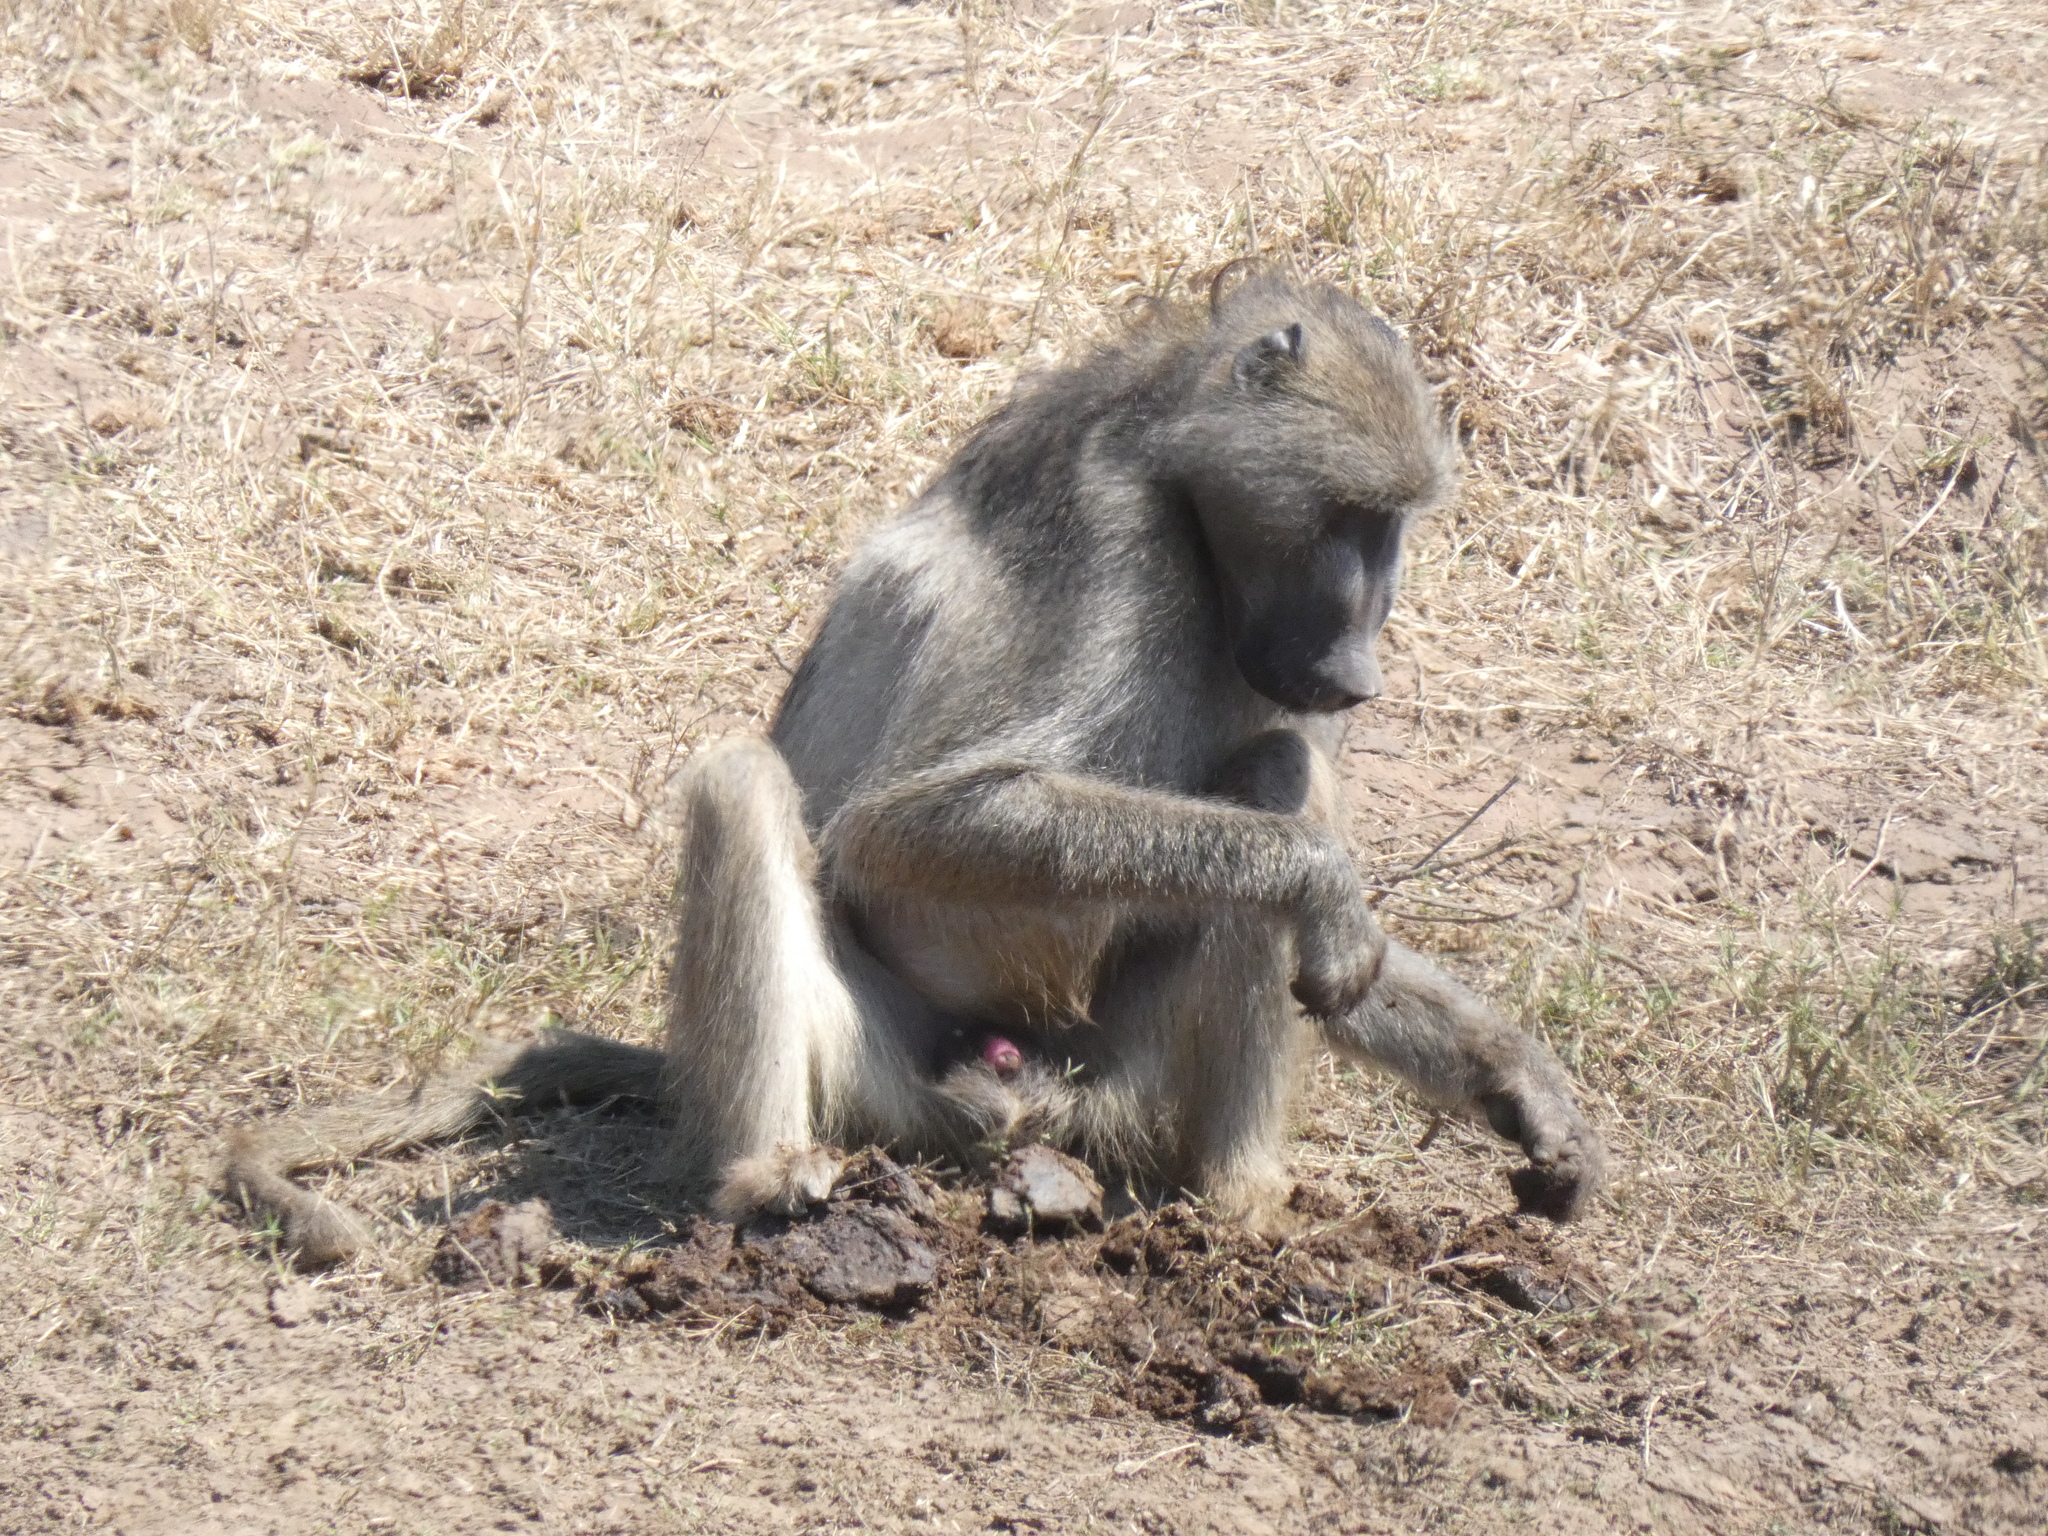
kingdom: Animalia
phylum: Chordata
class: Mammalia
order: Primates
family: Cercopithecidae
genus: Papio
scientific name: Papio ursinus
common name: Chacma baboon
